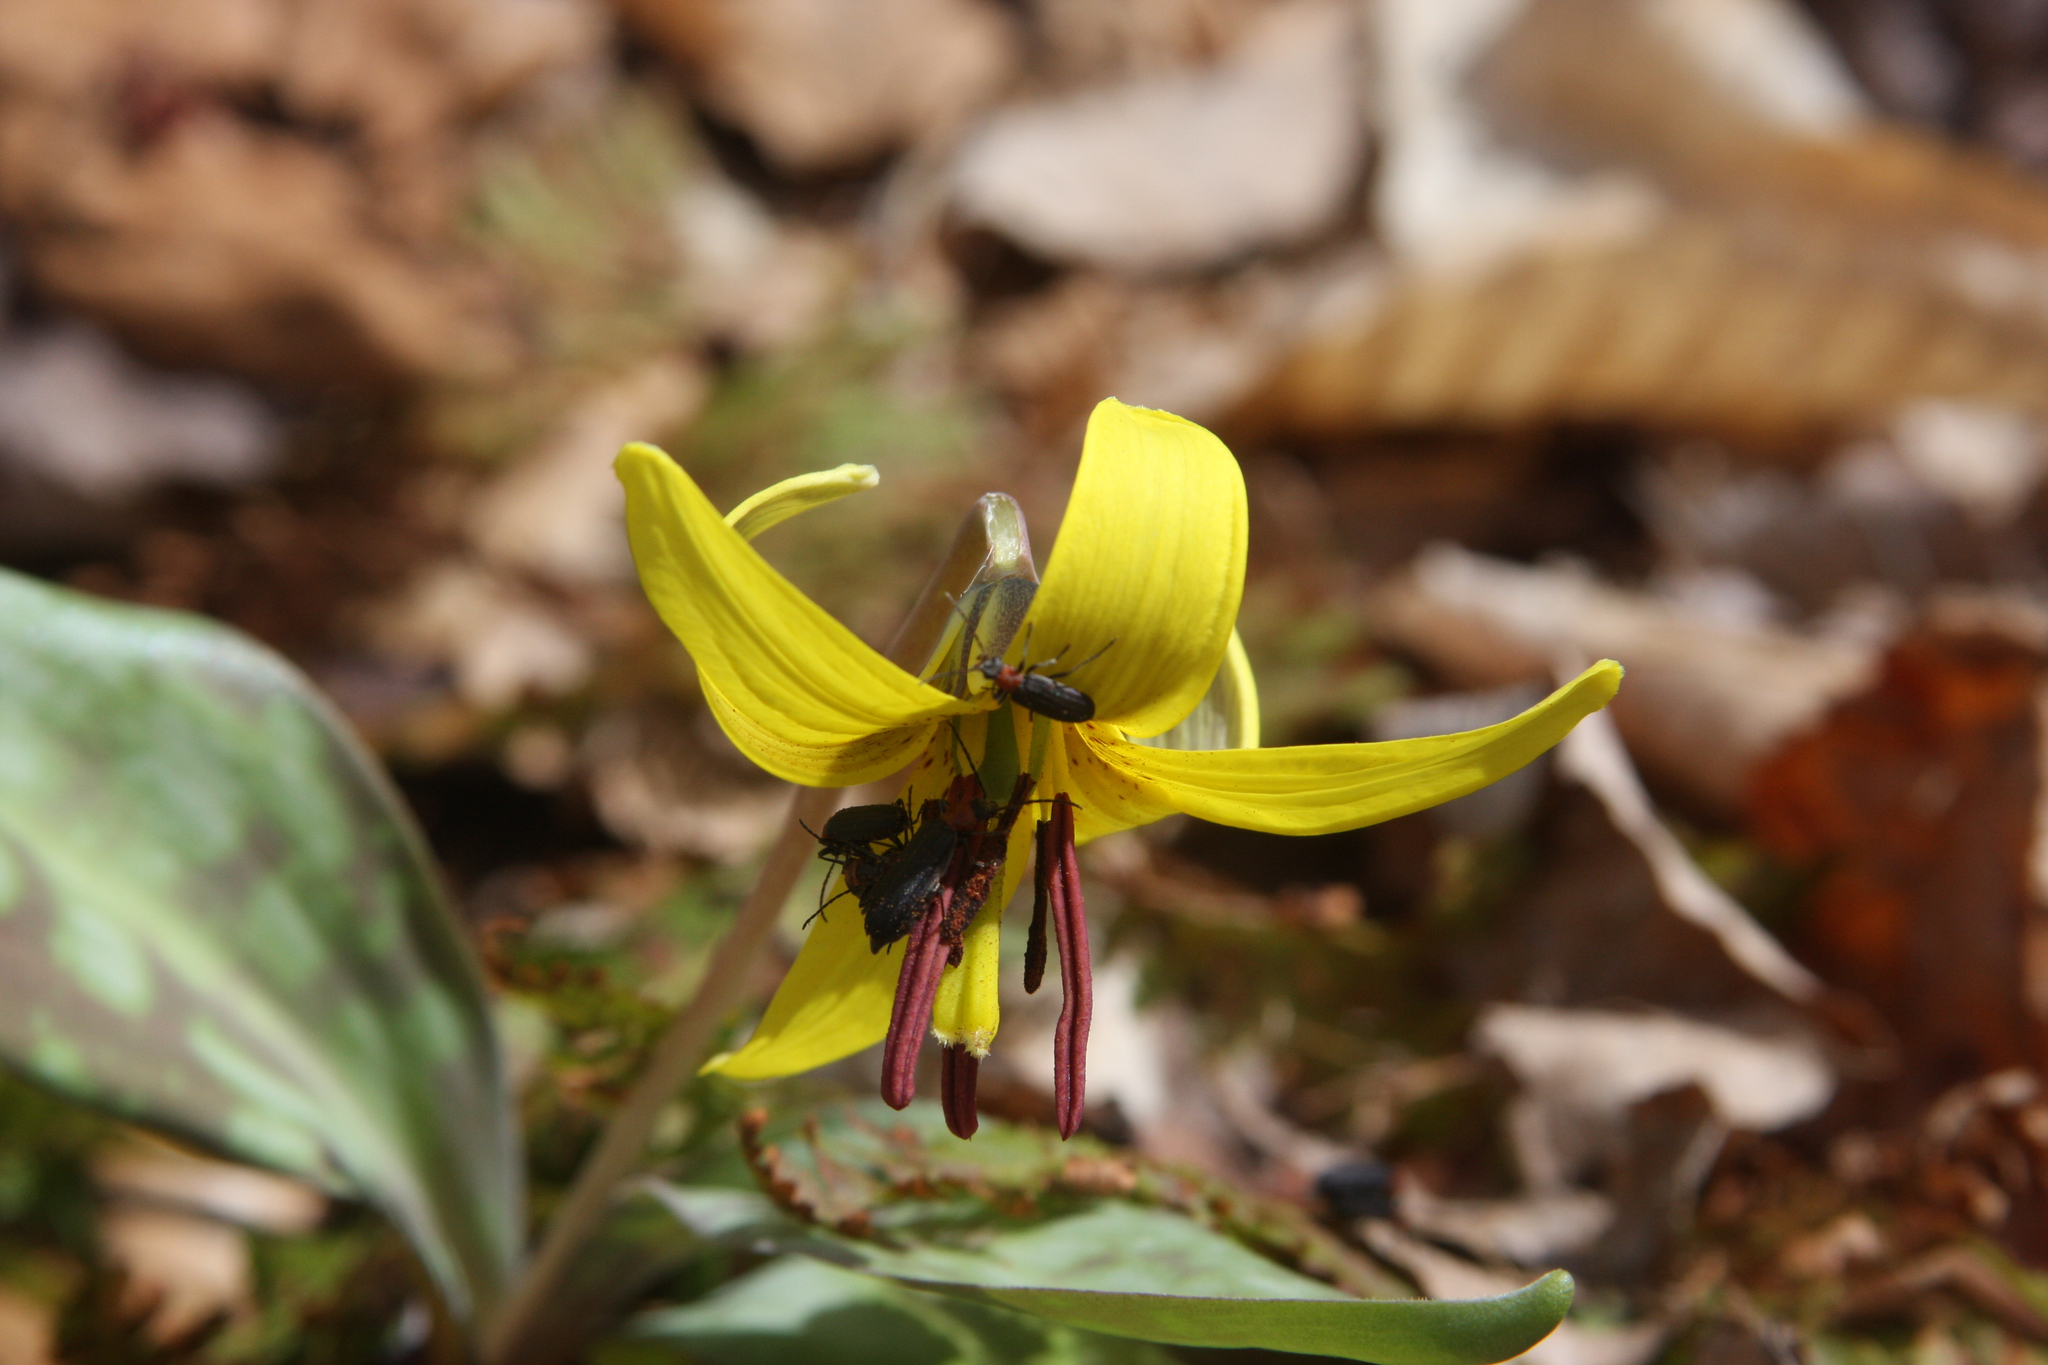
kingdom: Animalia
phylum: Arthropoda
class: Insecta
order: Coleoptera
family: Oedemeridae
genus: Ischnomera
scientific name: Ischnomera
